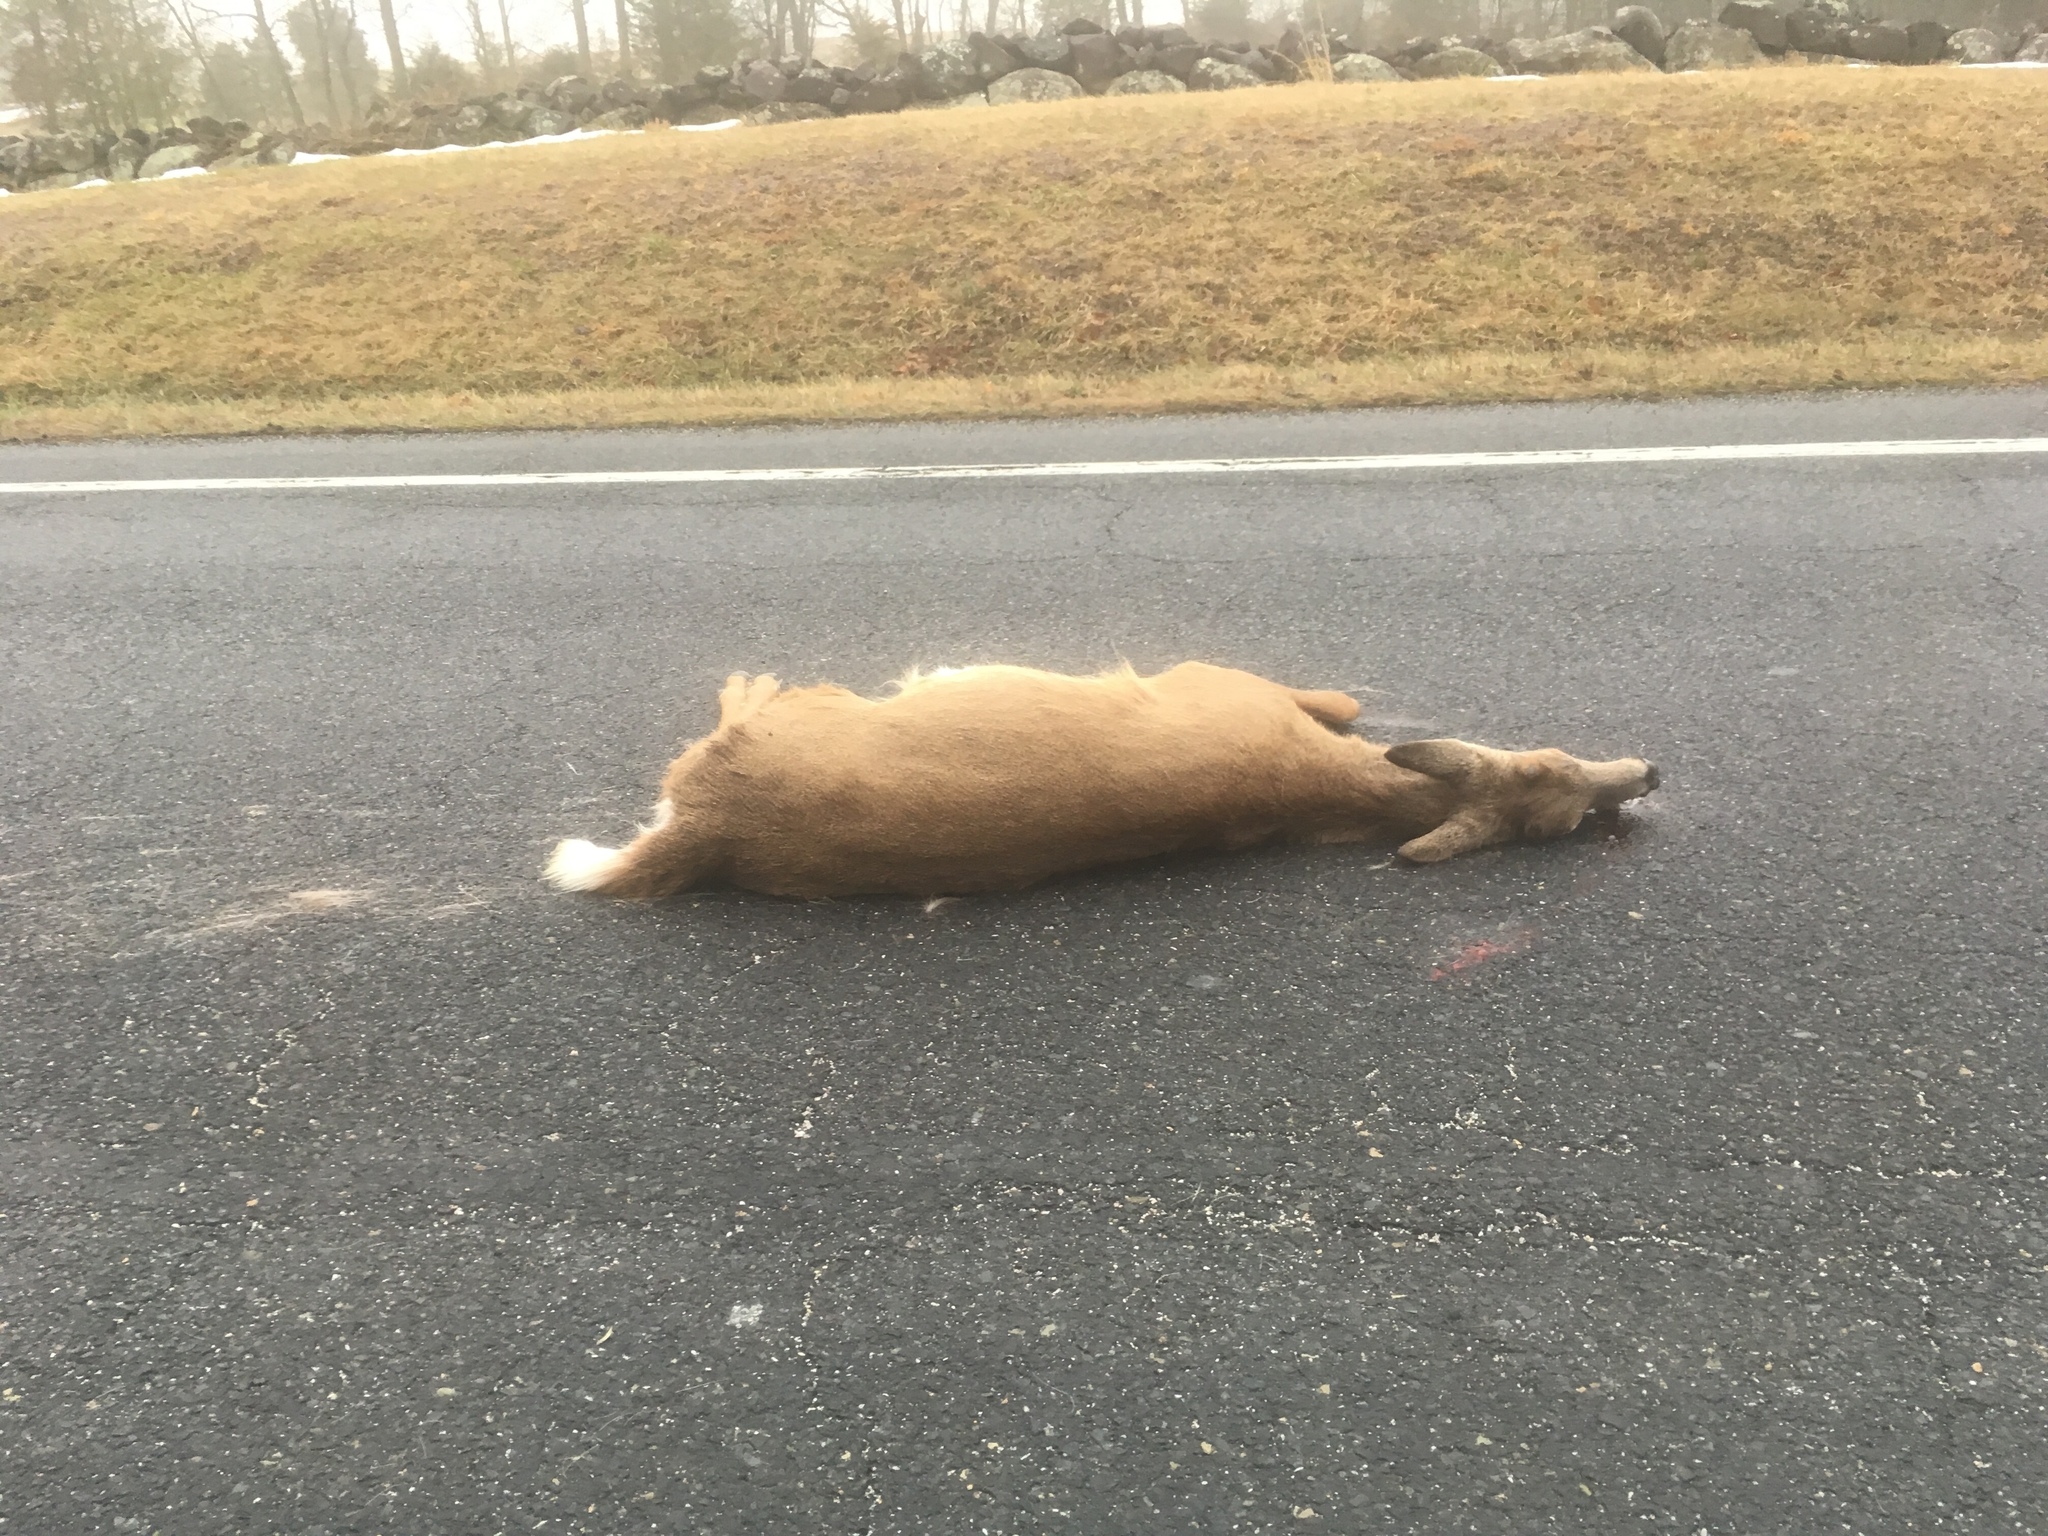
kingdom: Animalia
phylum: Chordata
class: Mammalia
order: Artiodactyla
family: Cervidae
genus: Odocoileus
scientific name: Odocoileus virginianus
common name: White-tailed deer
